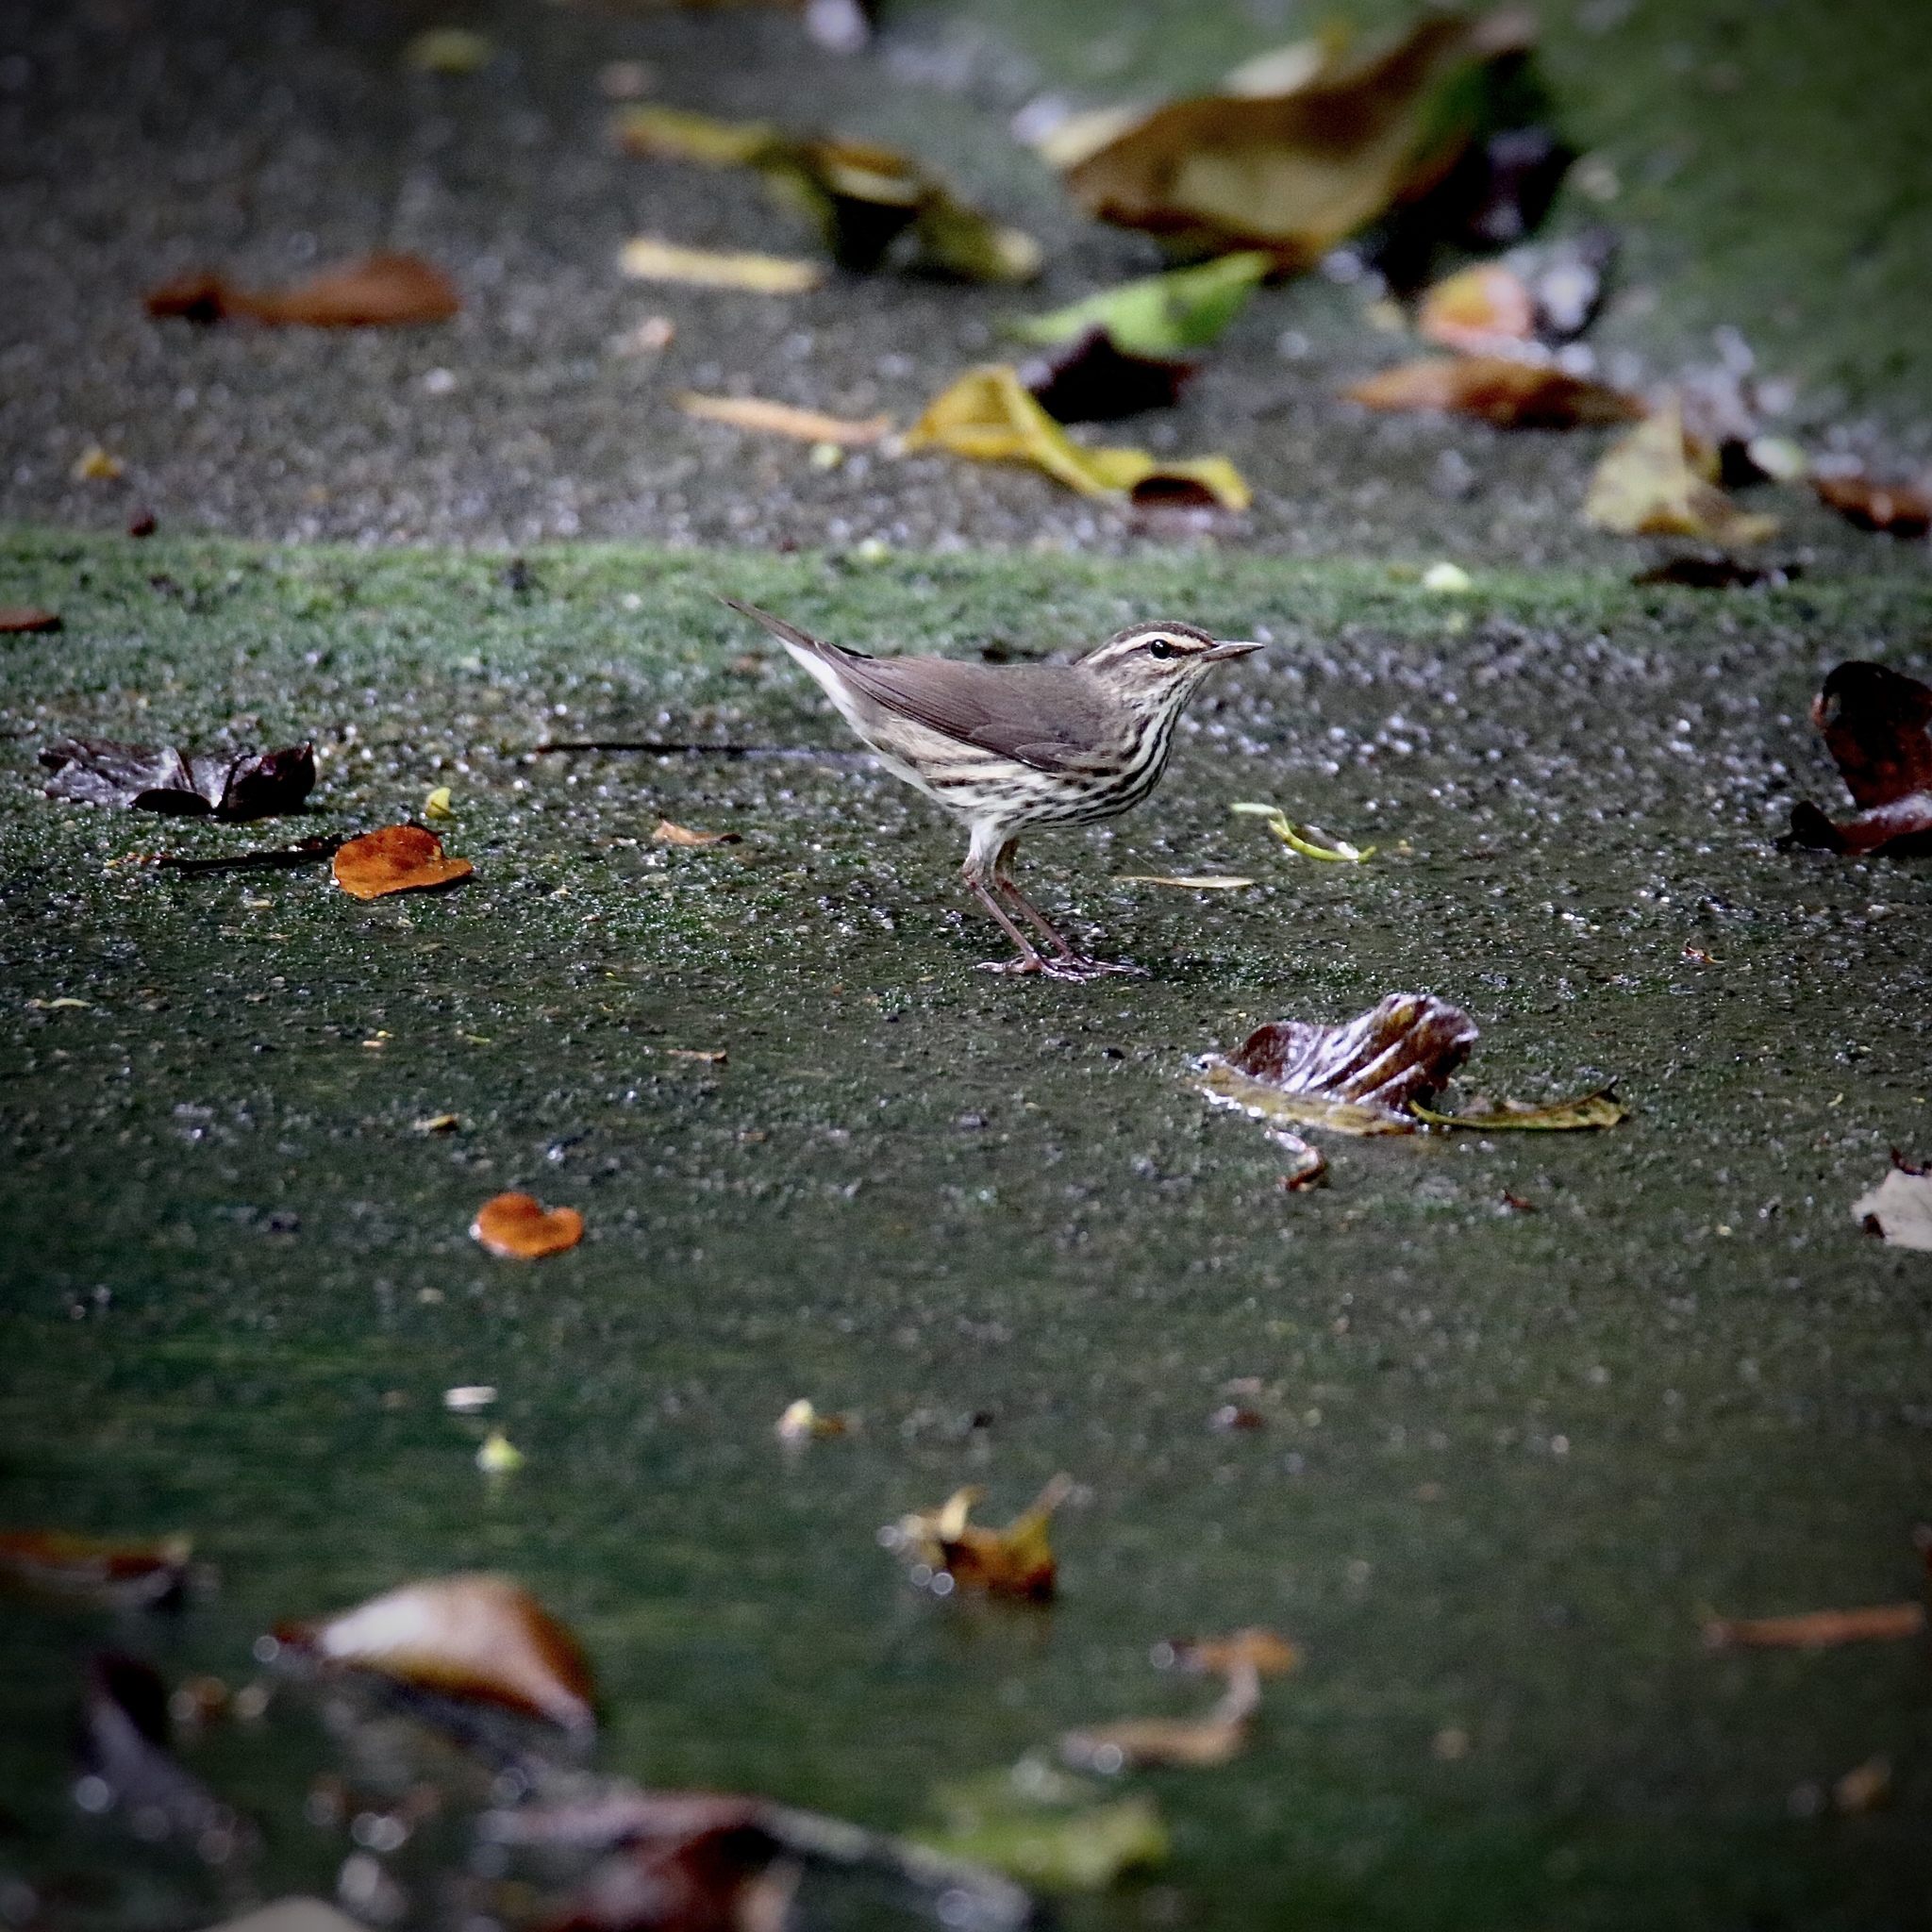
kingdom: Animalia
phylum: Chordata
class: Aves
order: Passeriformes
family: Parulidae
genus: Parkesia
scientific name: Parkesia noveboracensis
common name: Northern waterthrush
